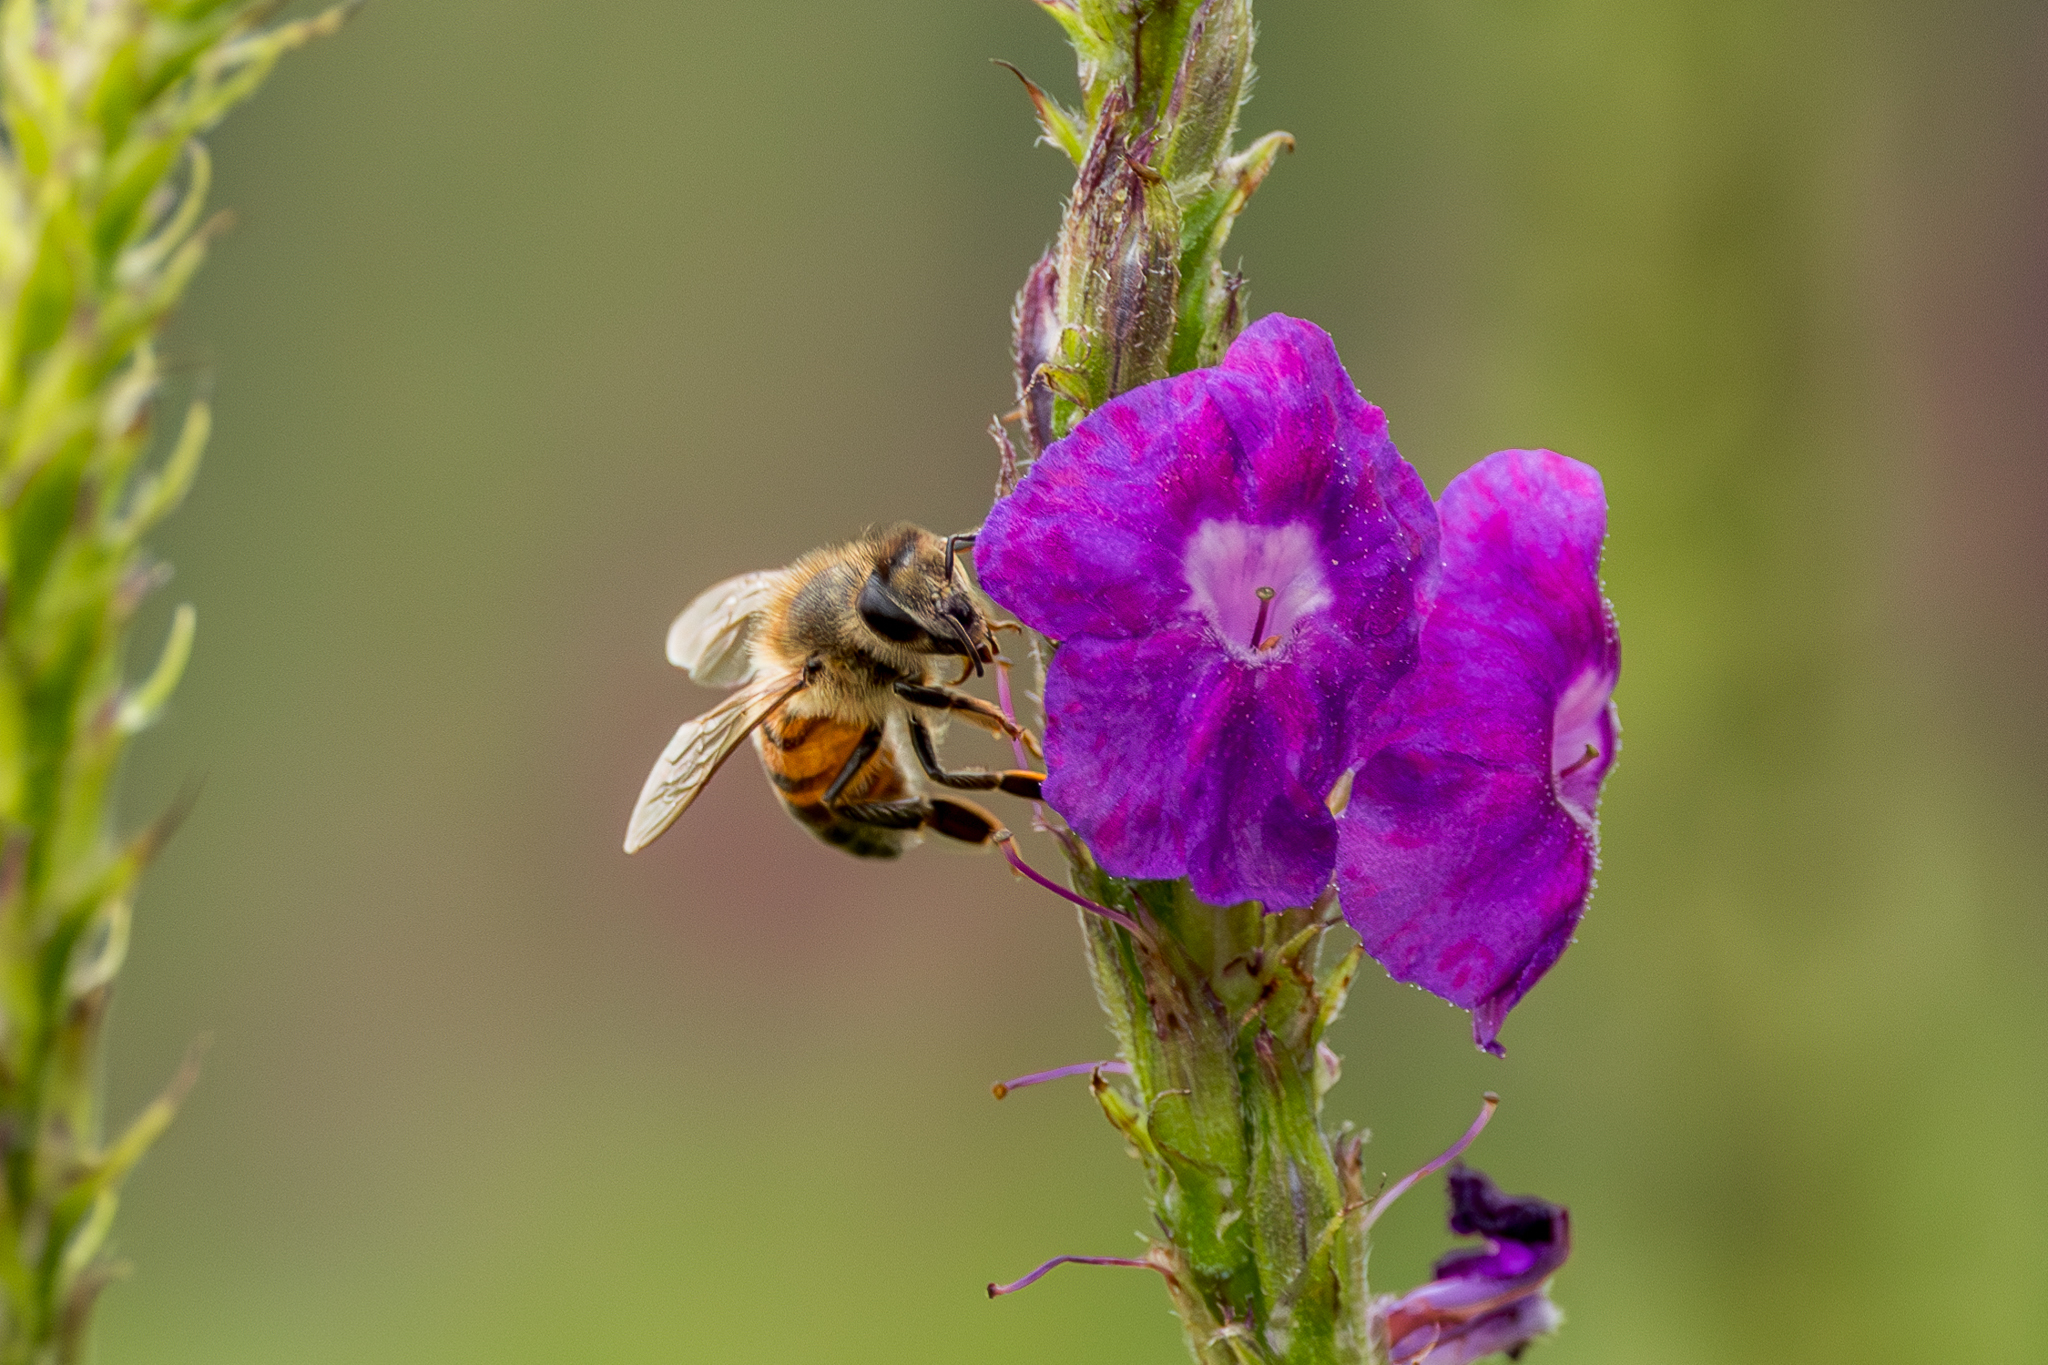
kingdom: Animalia
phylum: Arthropoda
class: Insecta
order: Hymenoptera
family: Apidae
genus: Apis
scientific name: Apis mellifera
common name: Honey bee
